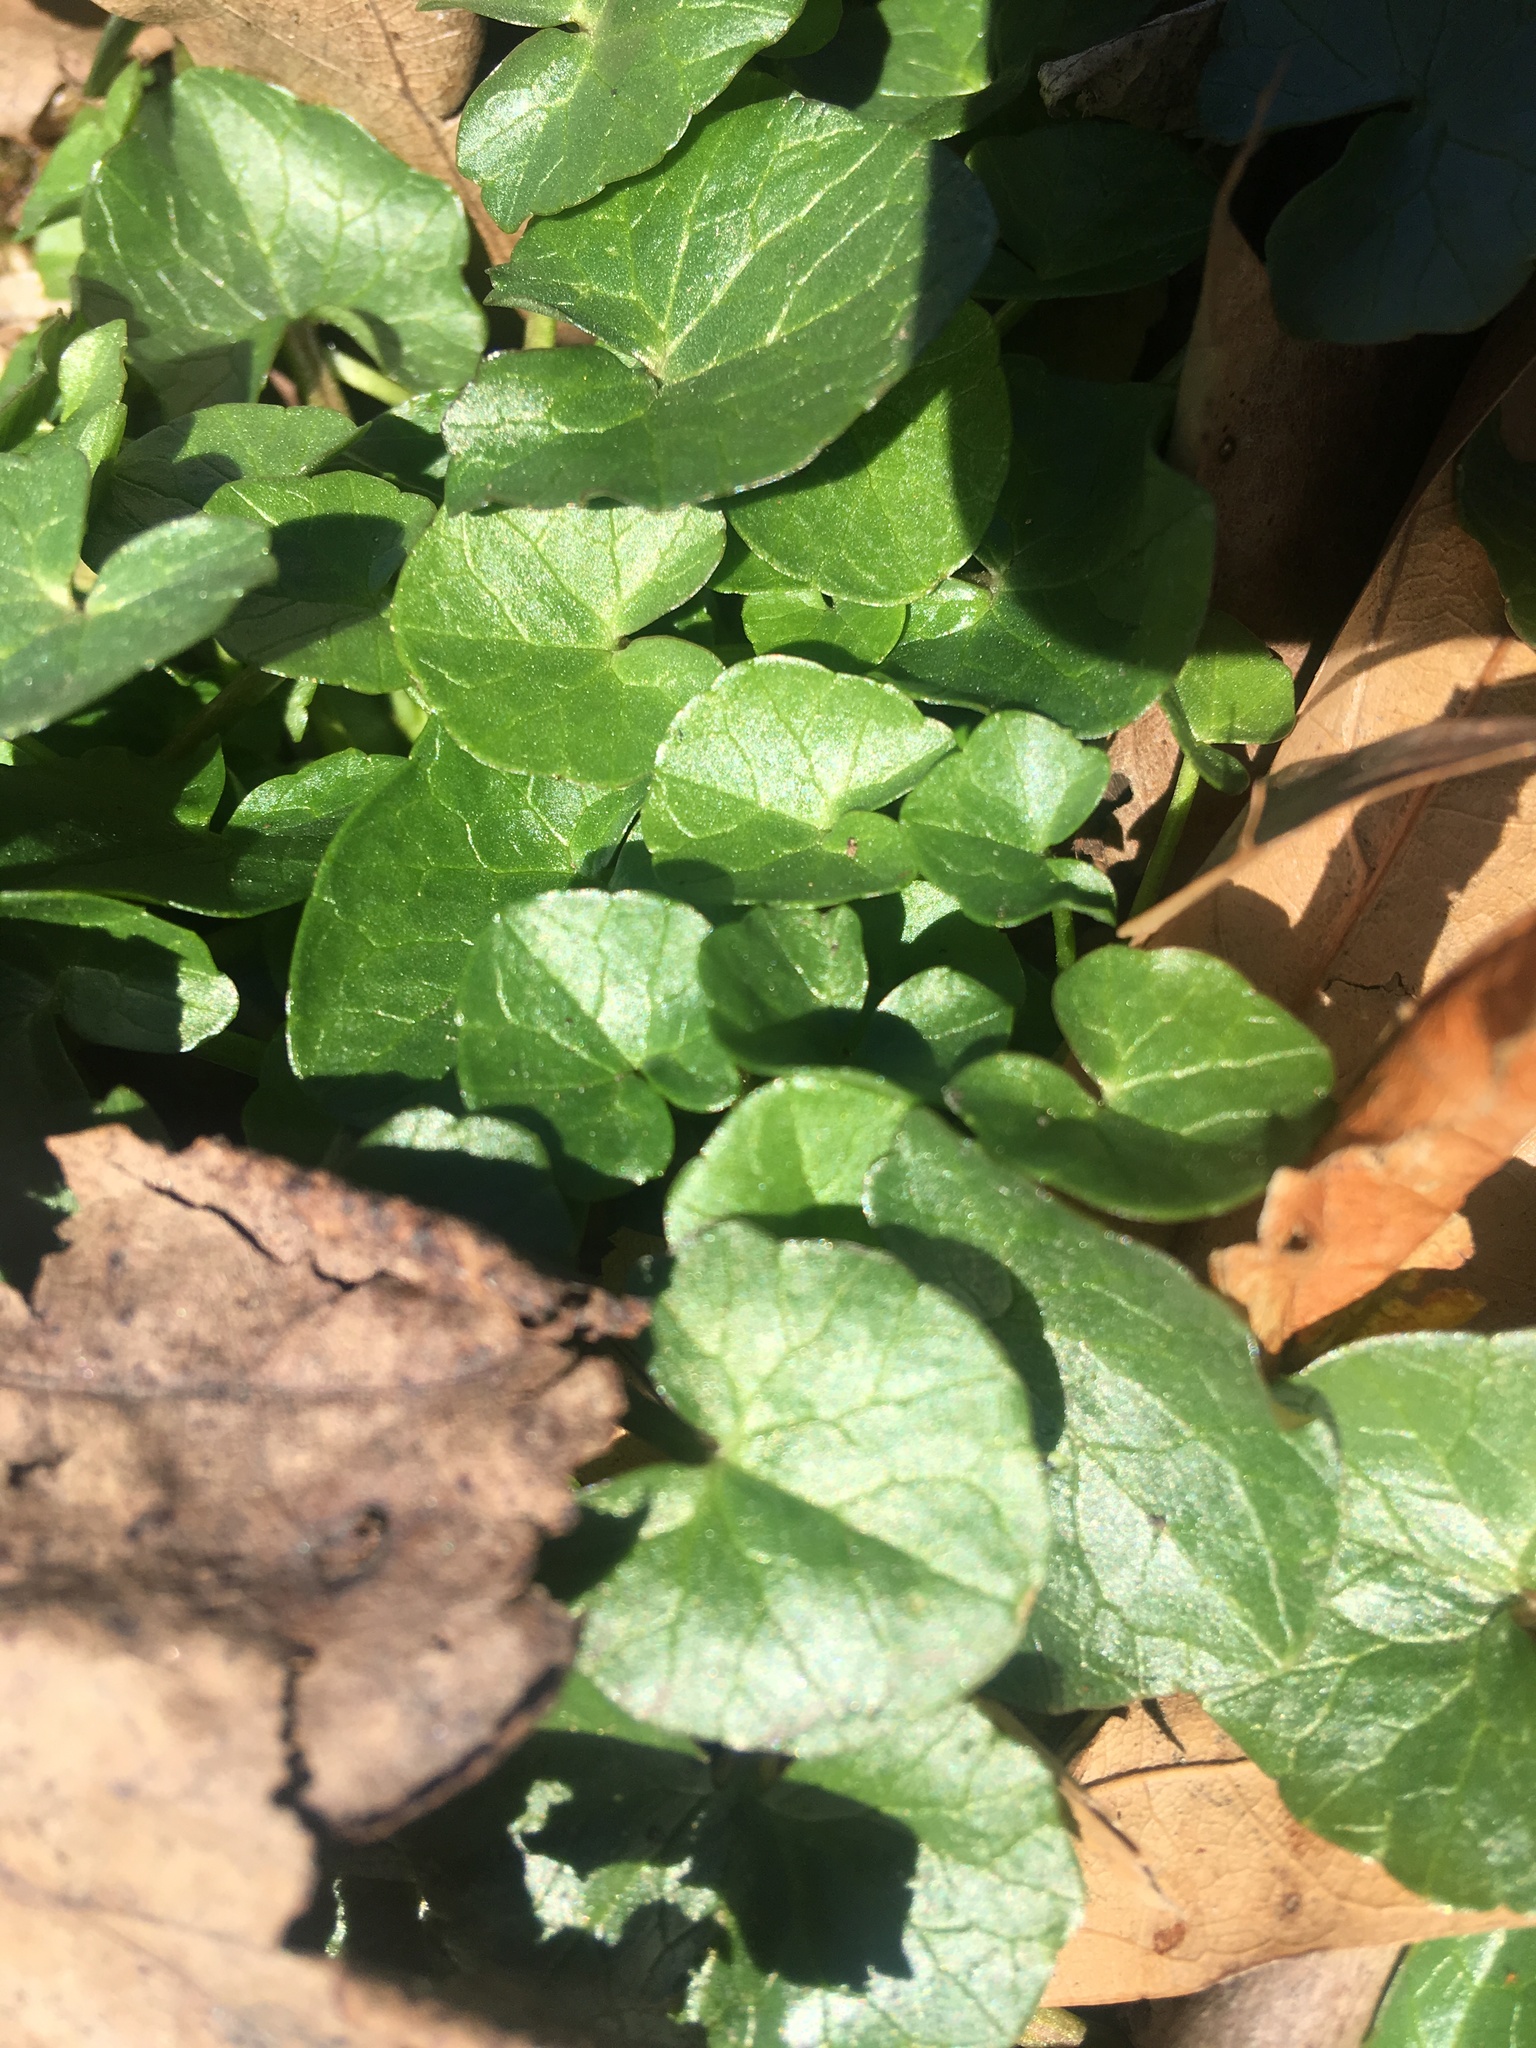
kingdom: Plantae
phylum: Tracheophyta
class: Magnoliopsida
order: Ranunculales
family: Ranunculaceae
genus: Ficaria
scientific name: Ficaria verna
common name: Lesser celandine
